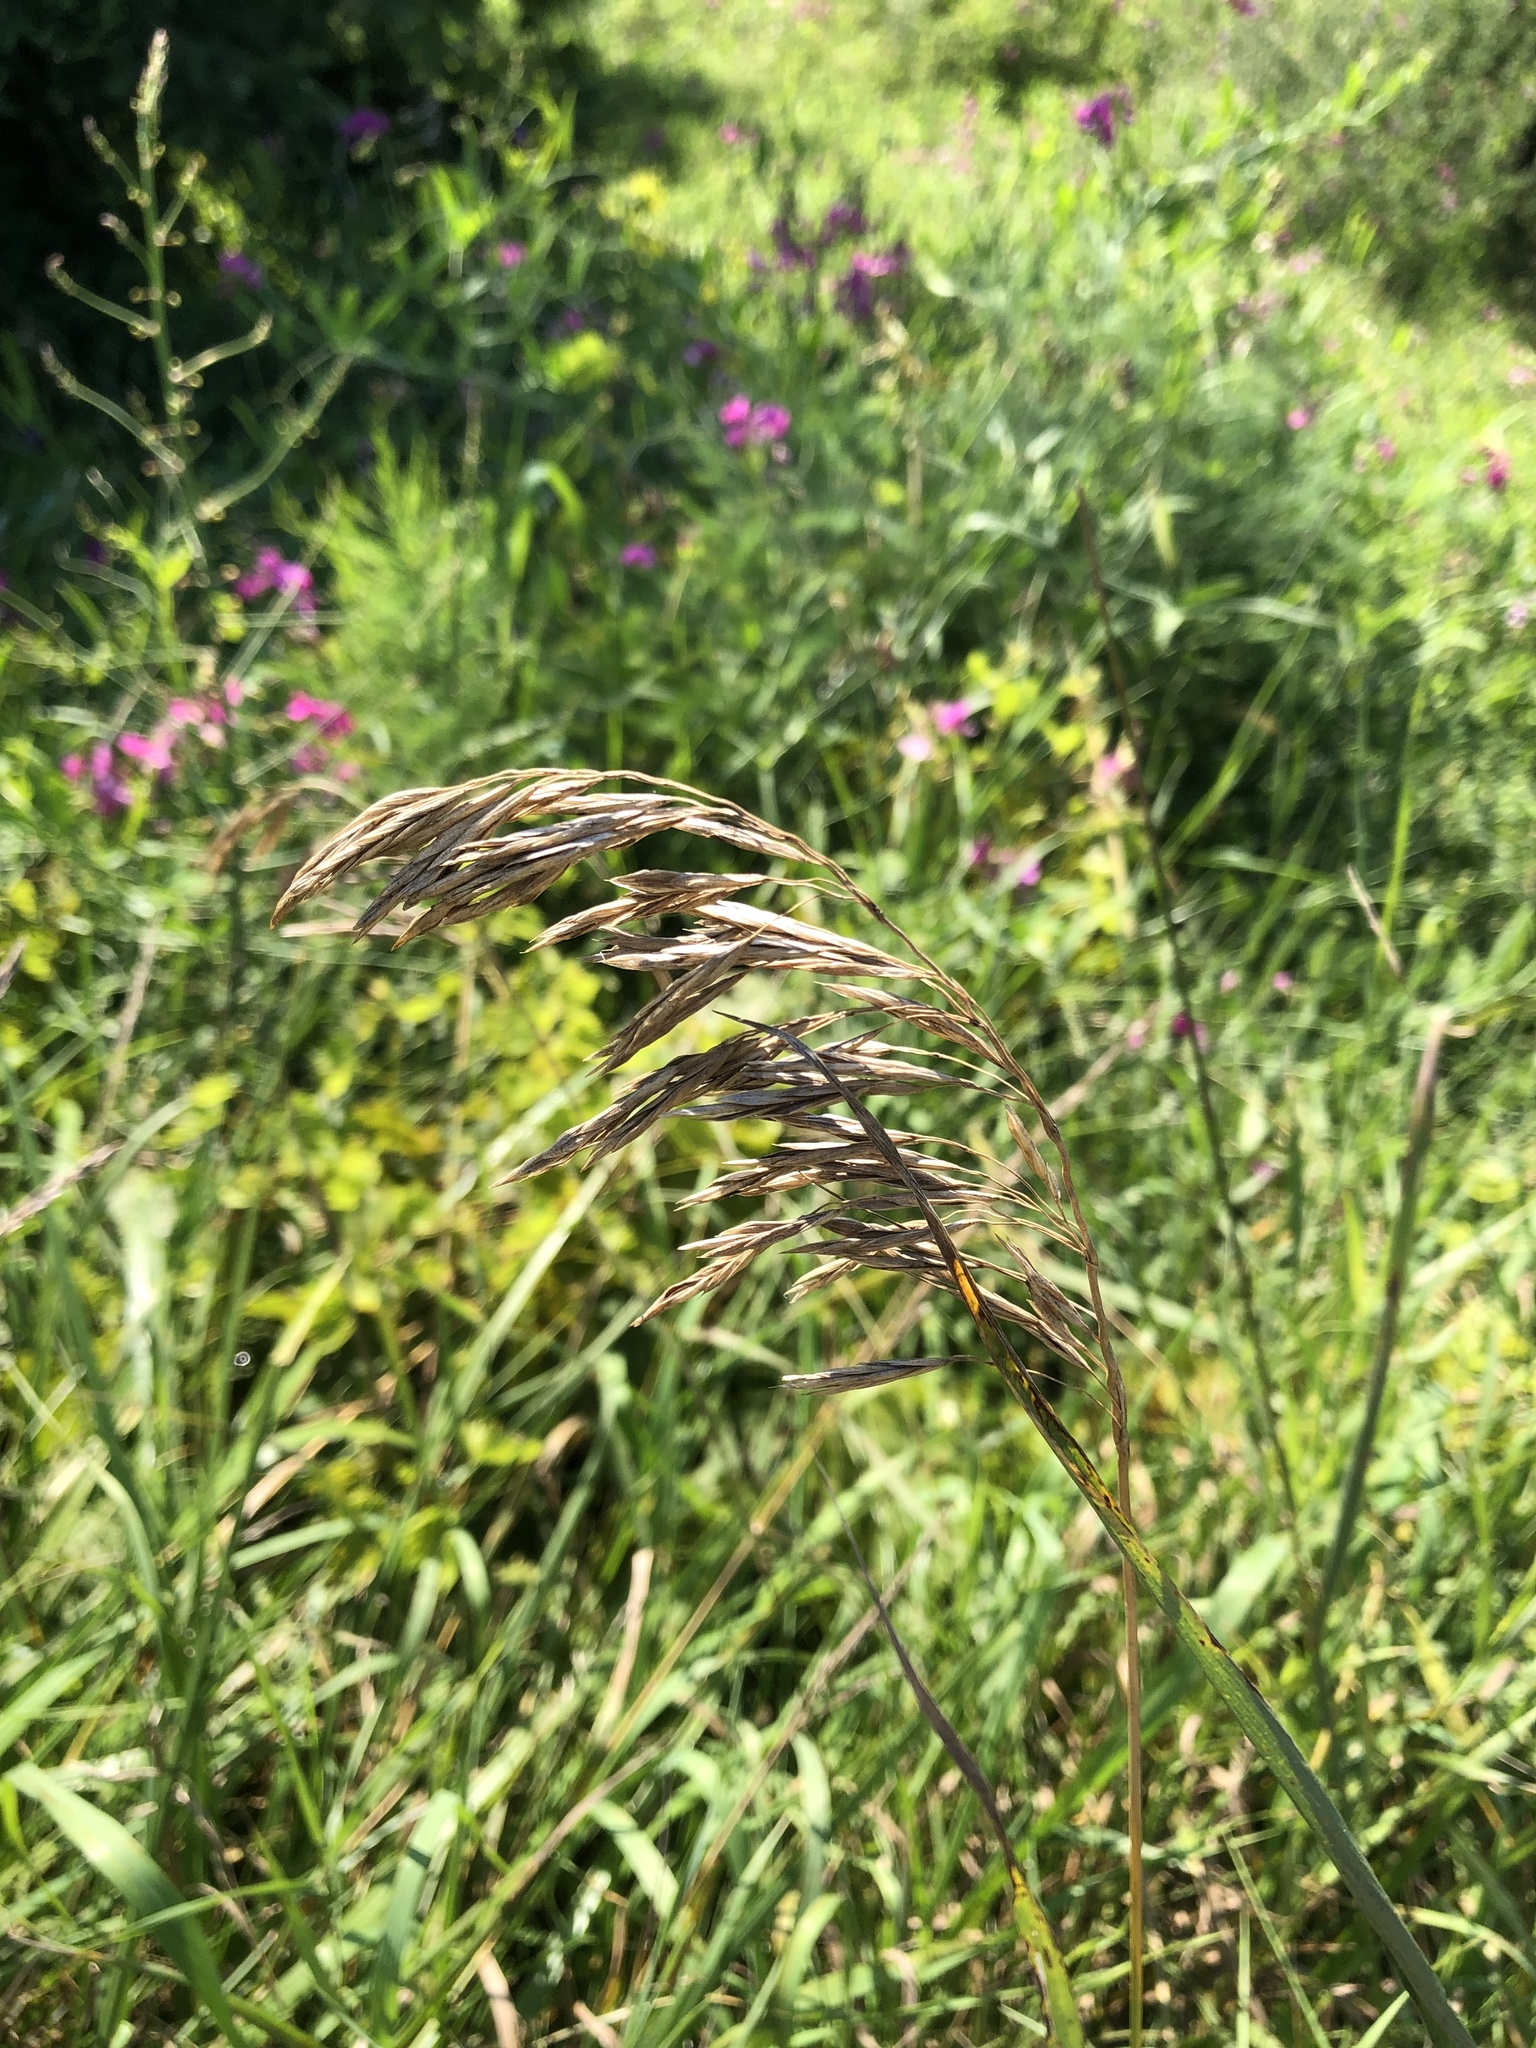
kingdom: Plantae
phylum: Tracheophyta
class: Liliopsida
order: Poales
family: Poaceae
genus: Bromus
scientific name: Bromus inermis
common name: Smooth brome
